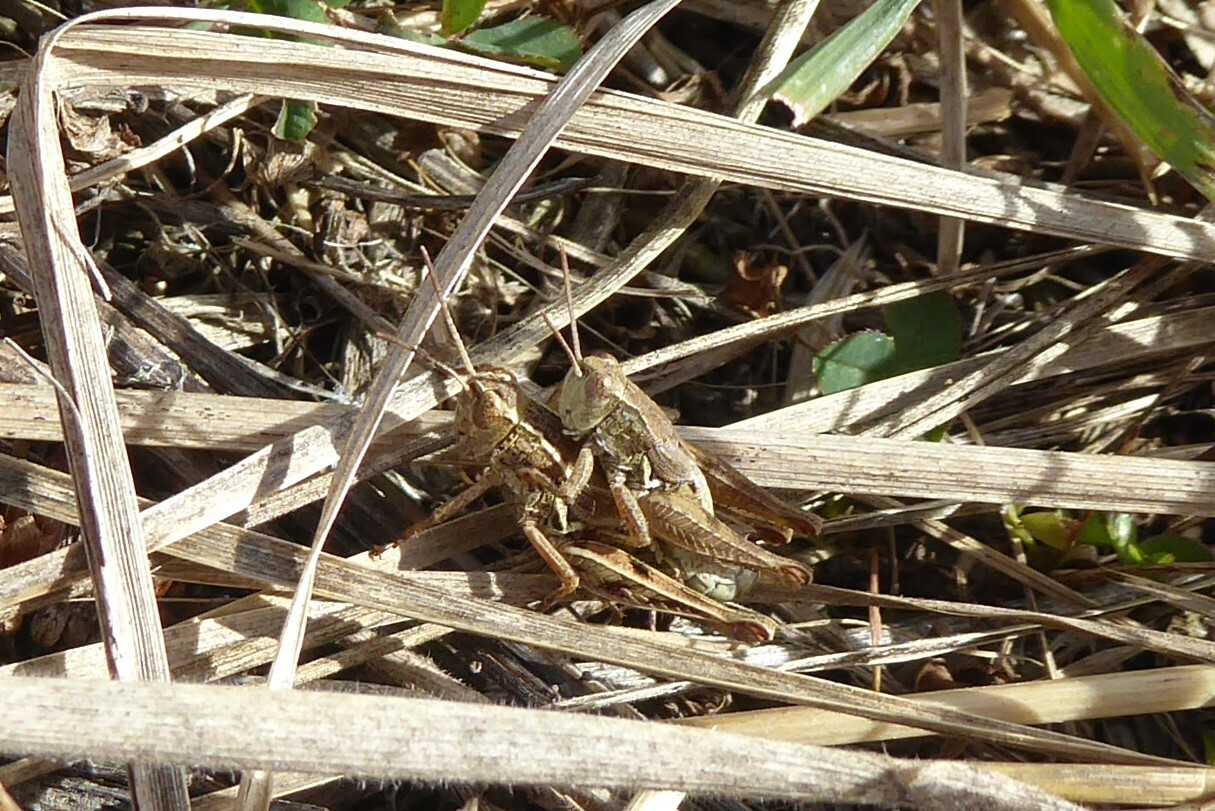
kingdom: Animalia
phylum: Arthropoda
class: Insecta
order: Orthoptera
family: Acrididae
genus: Phaulacridium
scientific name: Phaulacridium marginale
